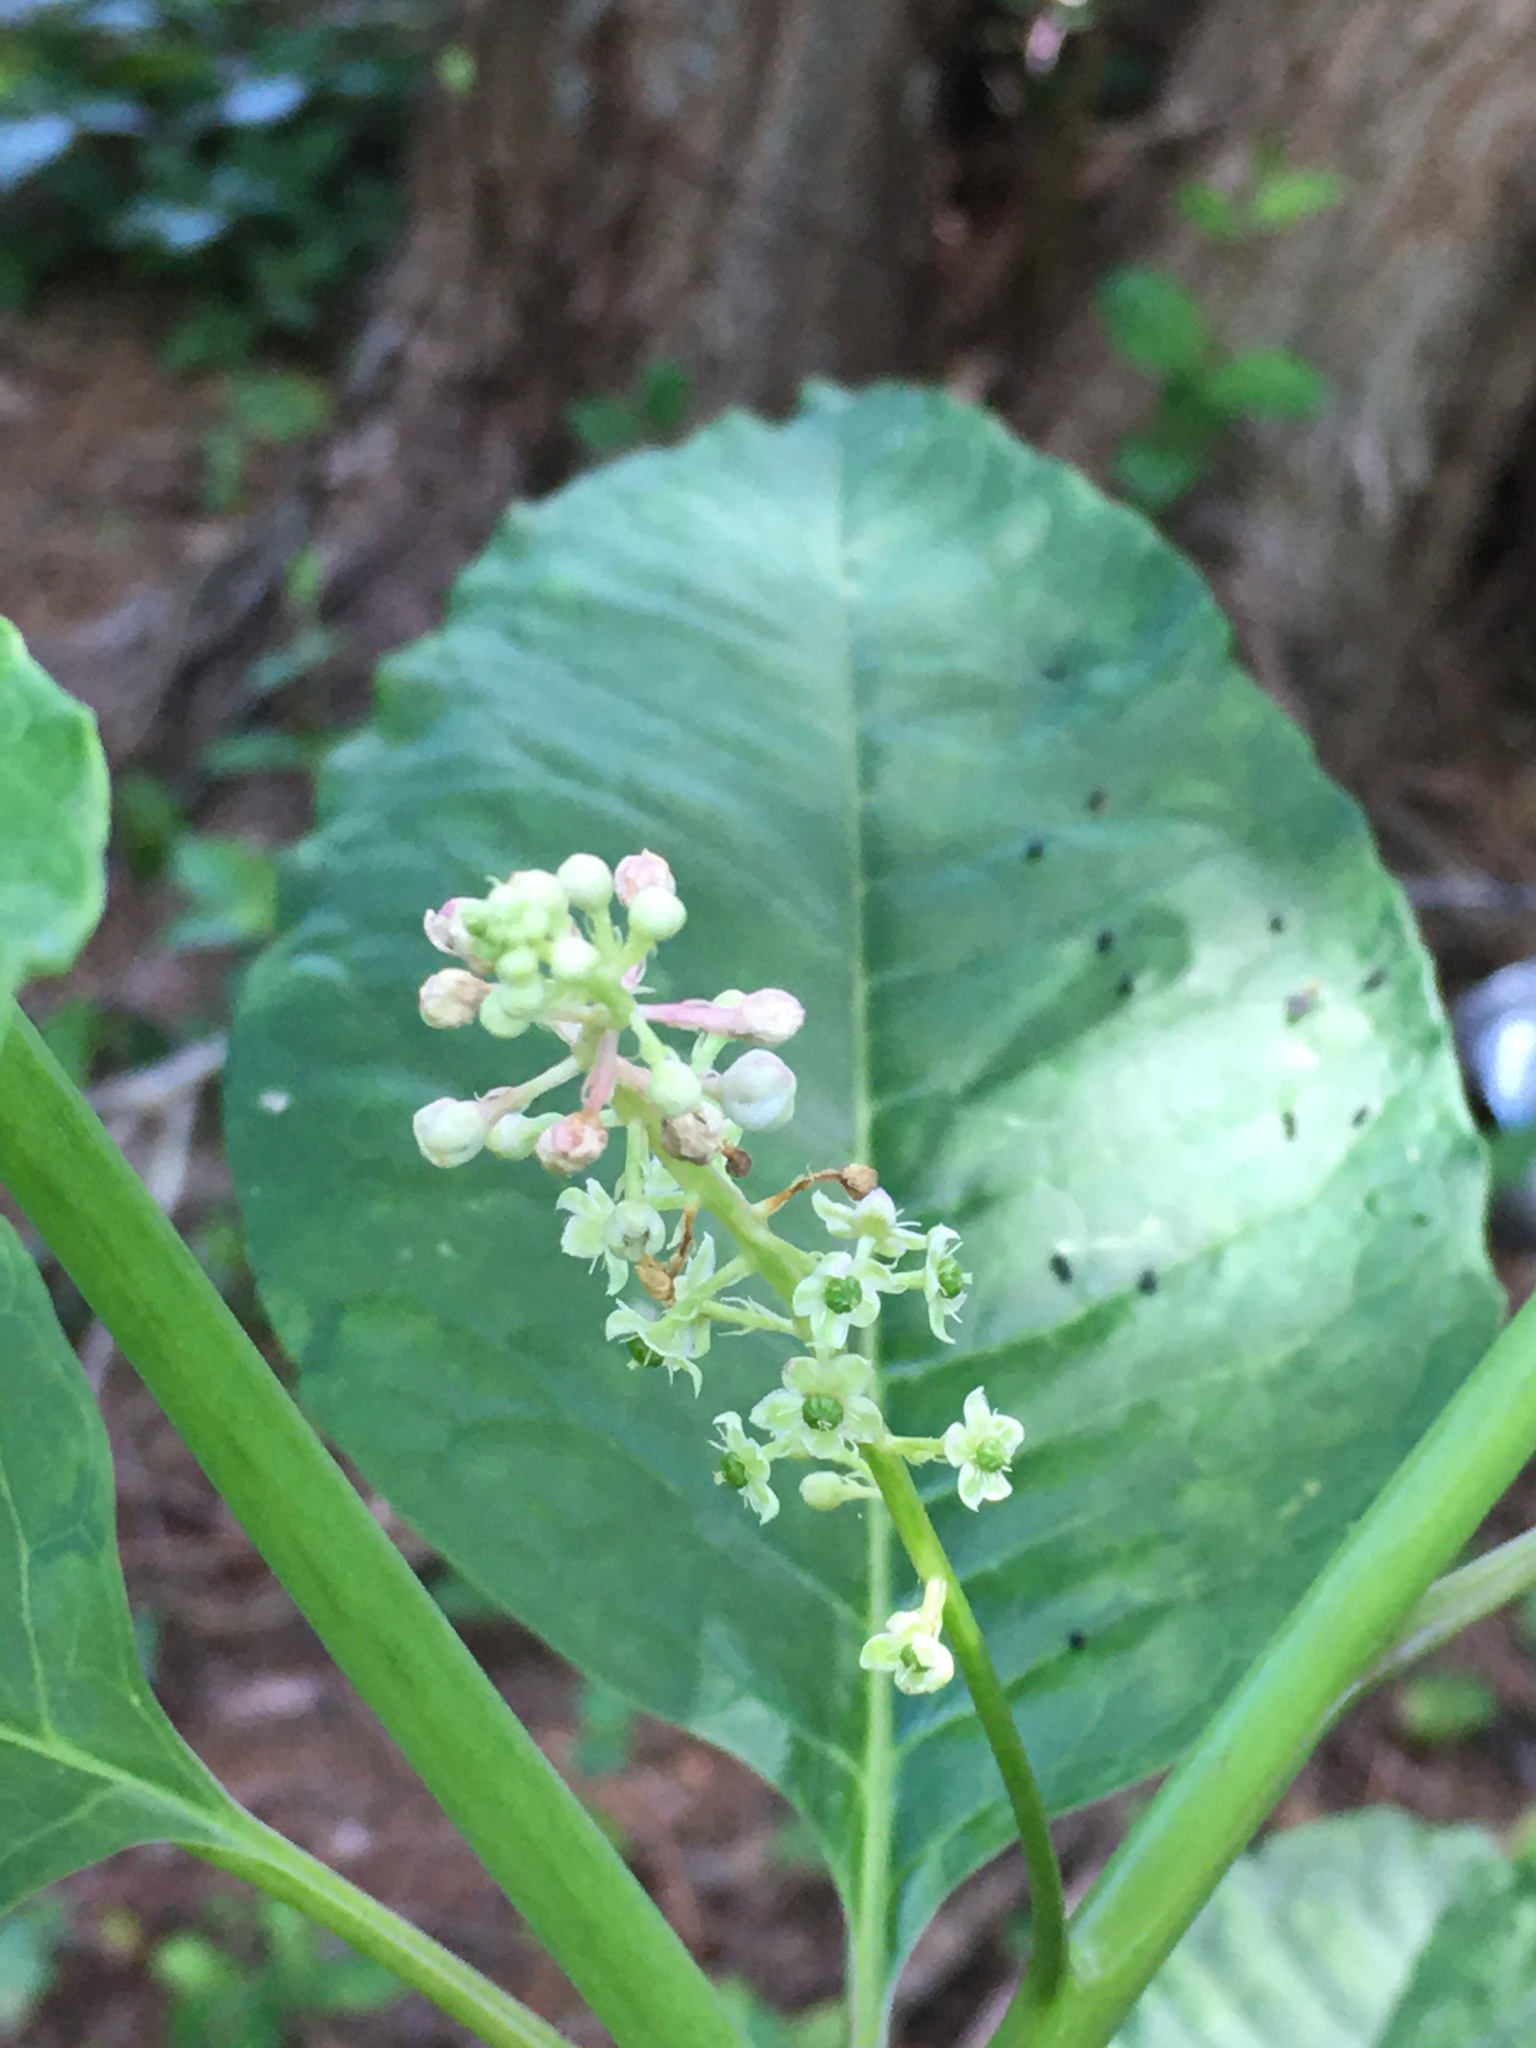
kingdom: Plantae
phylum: Tracheophyta
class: Magnoliopsida
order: Caryophyllales
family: Phytolaccaceae
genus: Phytolacca
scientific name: Phytolacca americana
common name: American pokeweed
